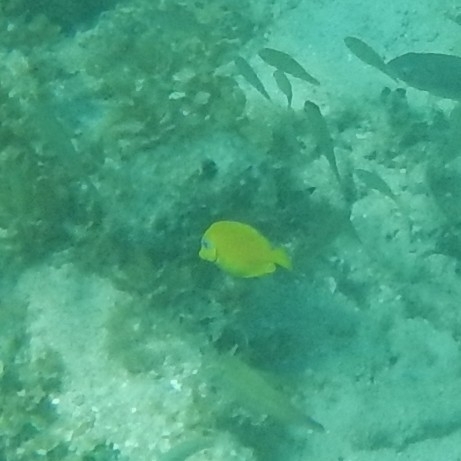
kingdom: Animalia
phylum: Chordata
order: Perciformes
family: Acanthuridae
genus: Acanthurus
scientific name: Acanthurus coeruleus
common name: Blue tang
